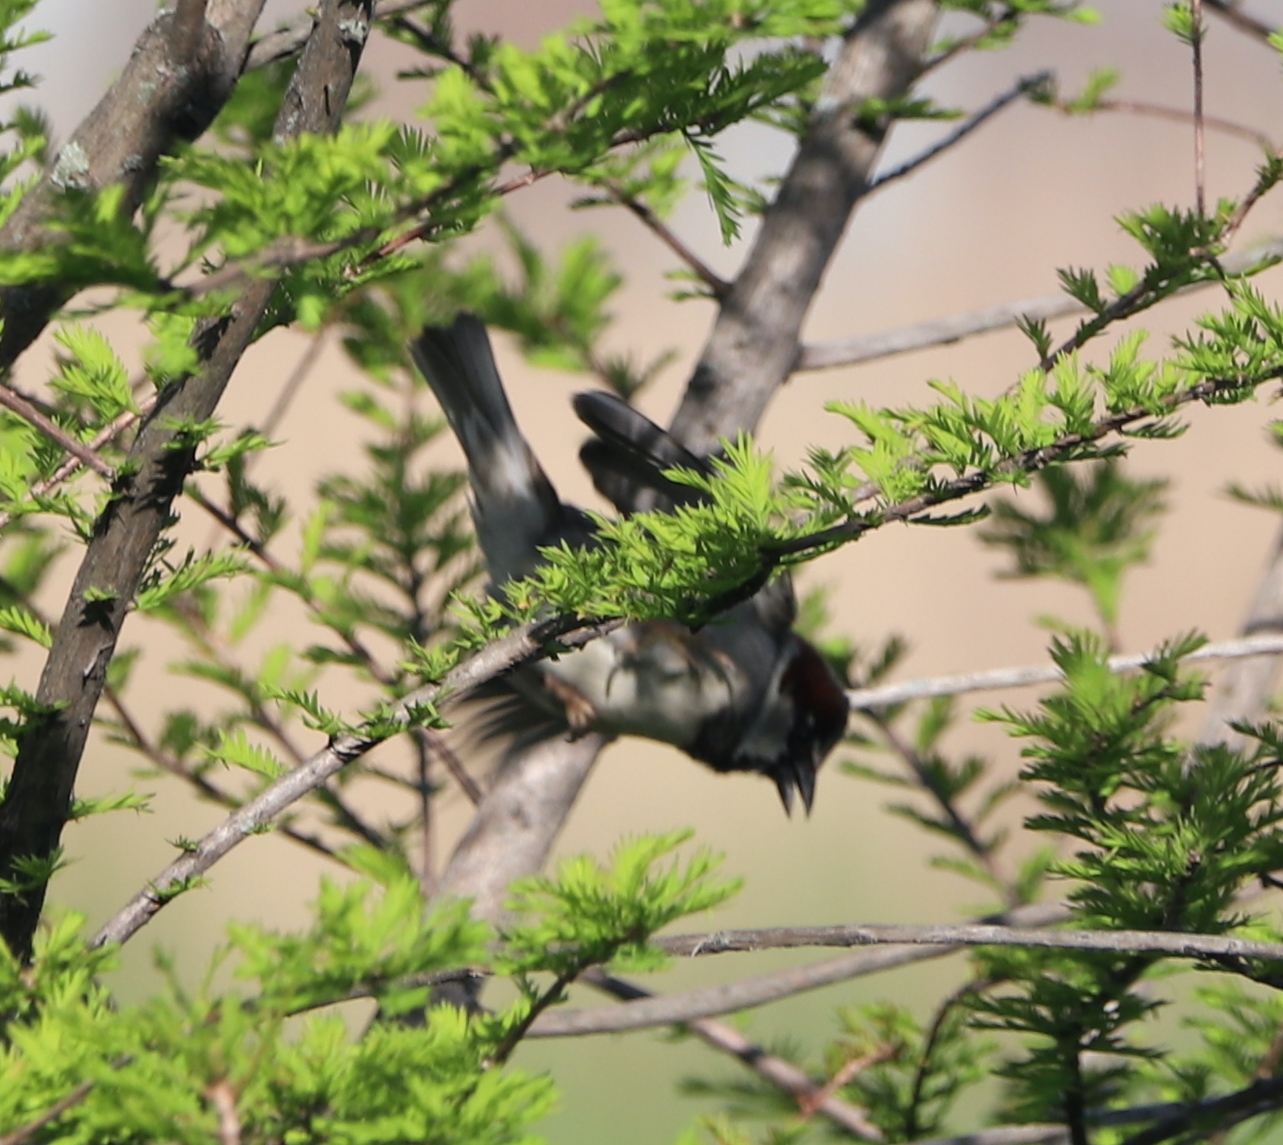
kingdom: Animalia
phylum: Chordata
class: Aves
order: Passeriformes
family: Passeridae
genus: Passer
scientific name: Passer domesticus
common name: House sparrow
